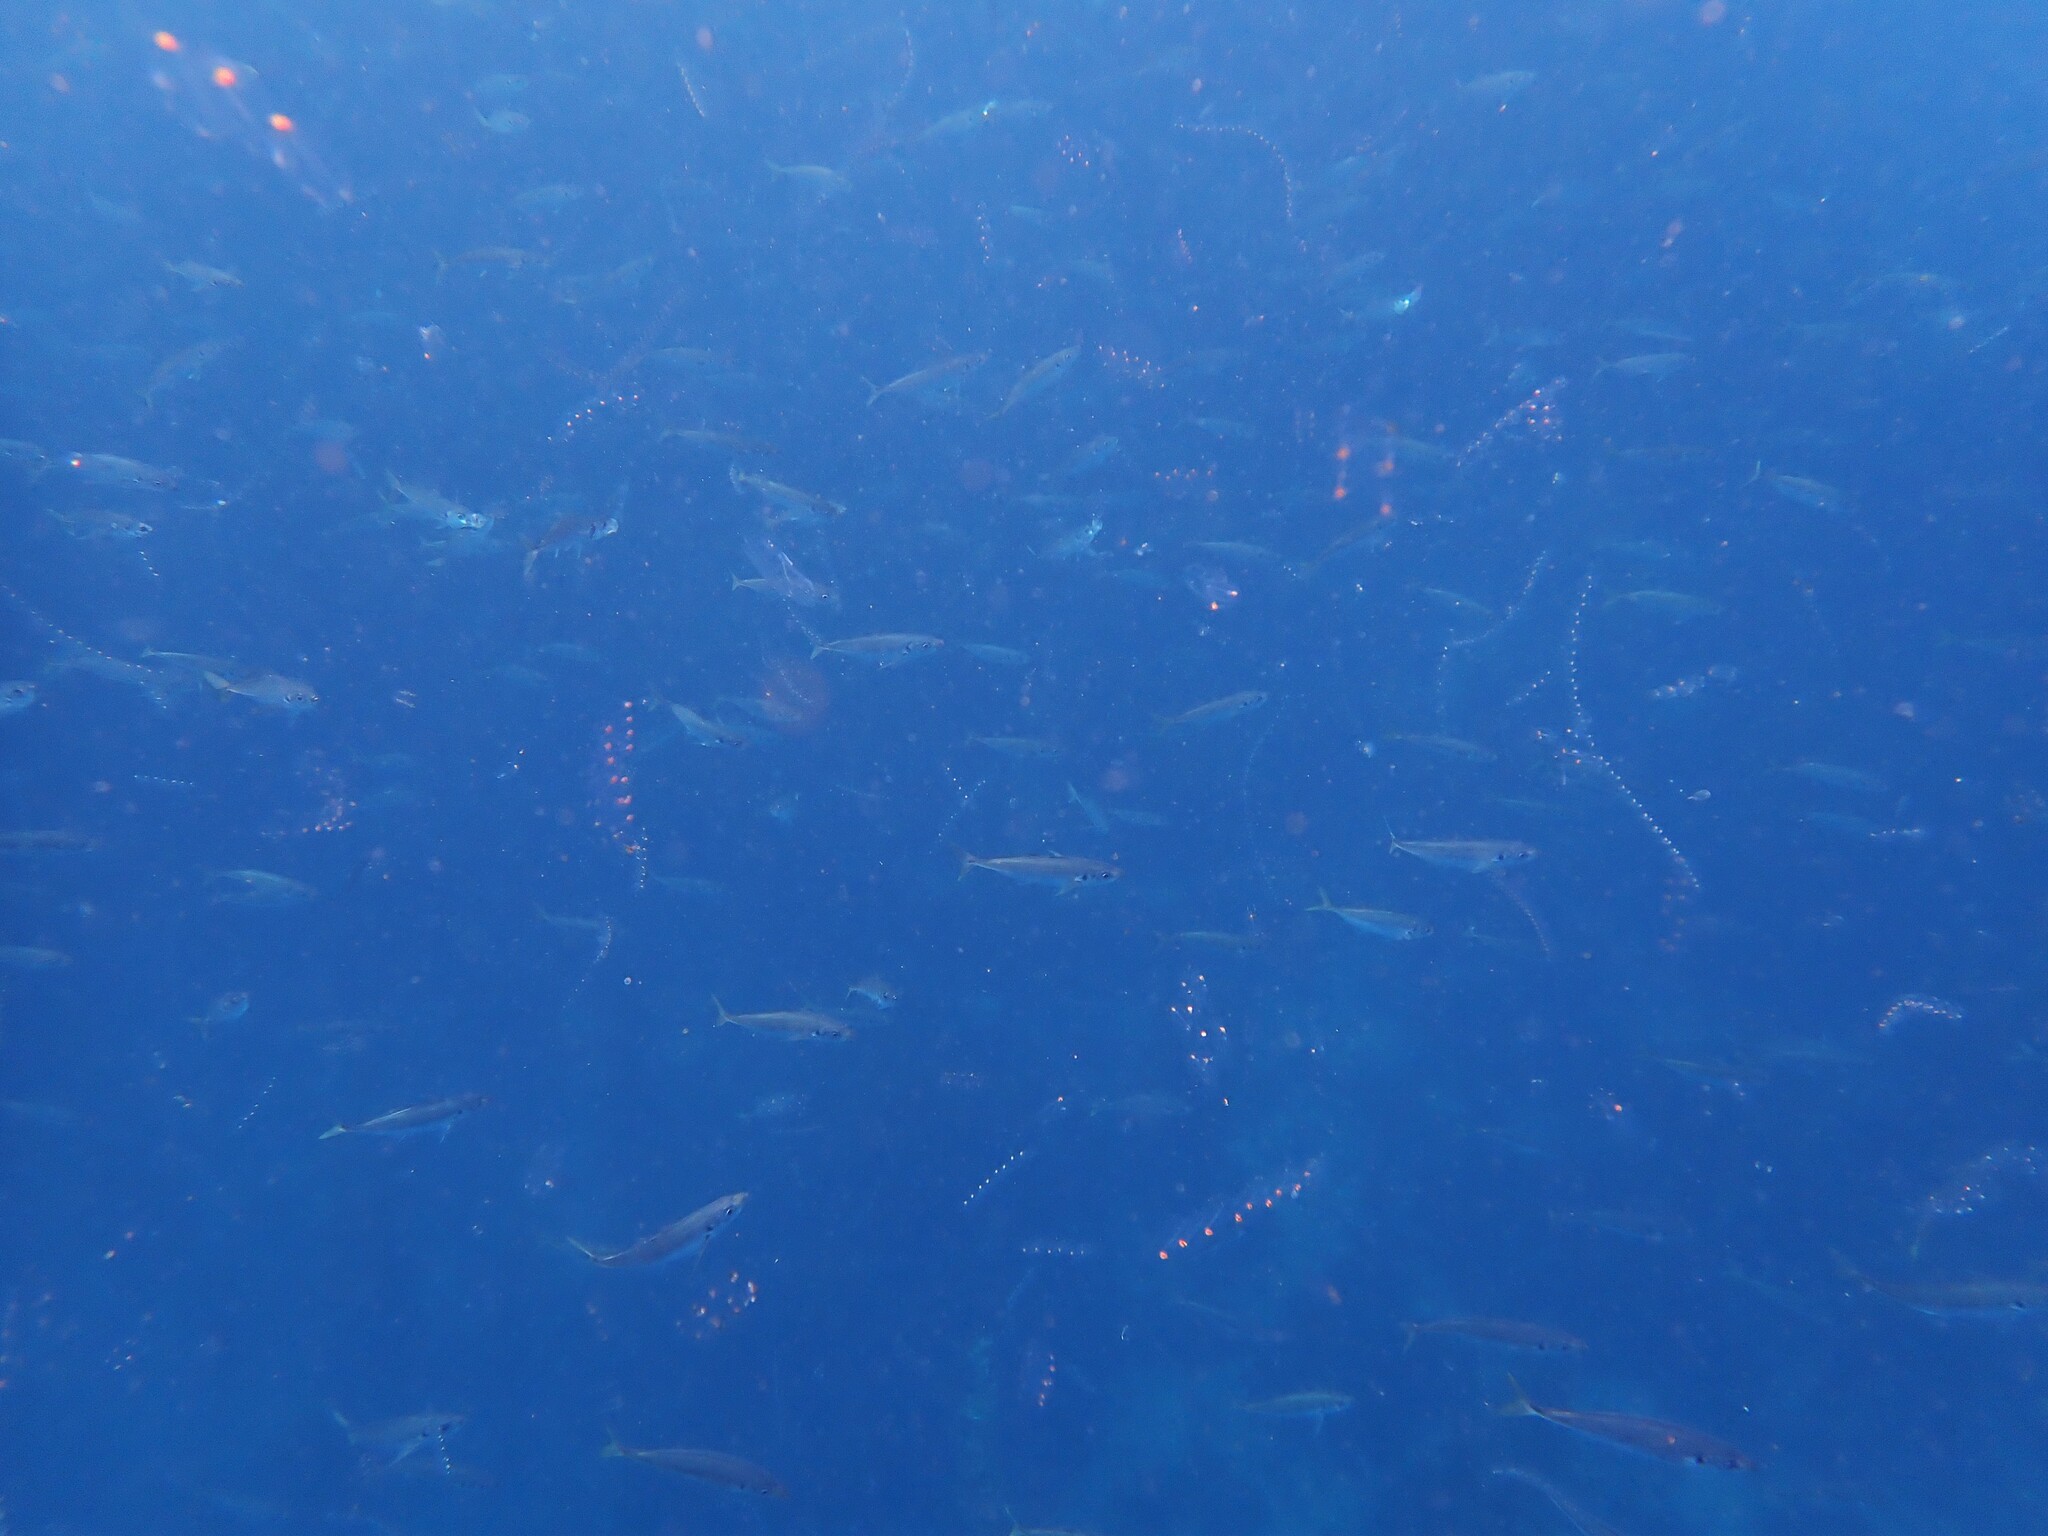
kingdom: Animalia
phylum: Chordata
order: Perciformes
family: Carangidae
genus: Trachurus
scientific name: Trachurus novaezelandiae
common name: Yellowtail horse mackerel
